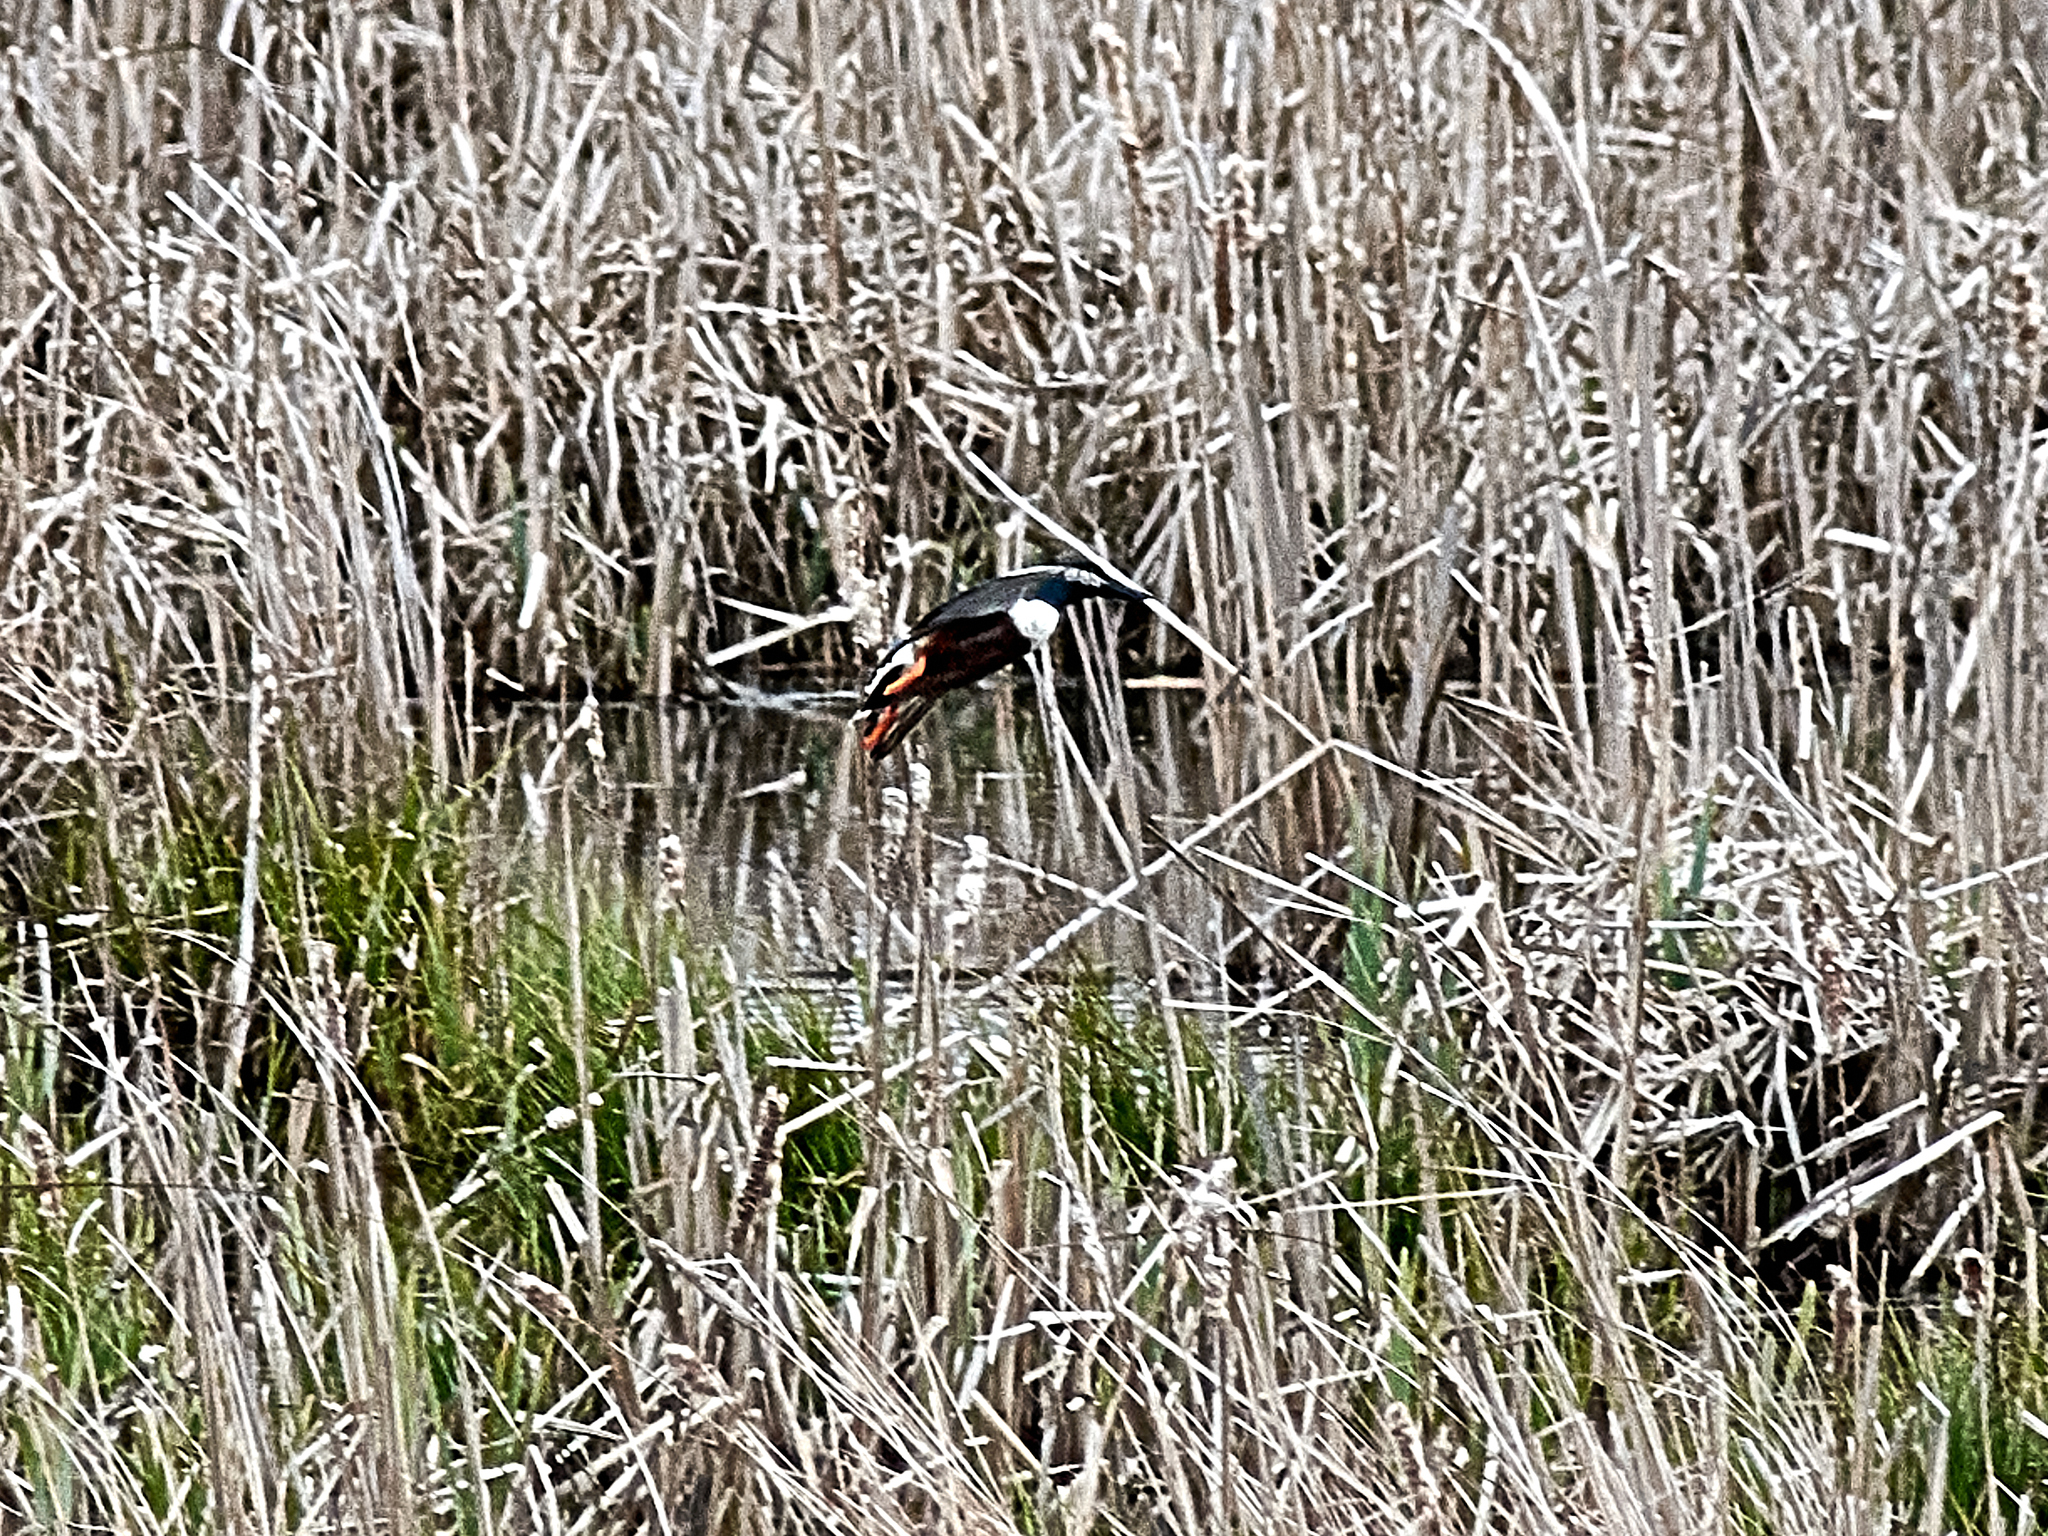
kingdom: Animalia
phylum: Chordata
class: Aves
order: Anseriformes
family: Anatidae
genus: Spatula
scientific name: Spatula clypeata
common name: Northern shoveler
